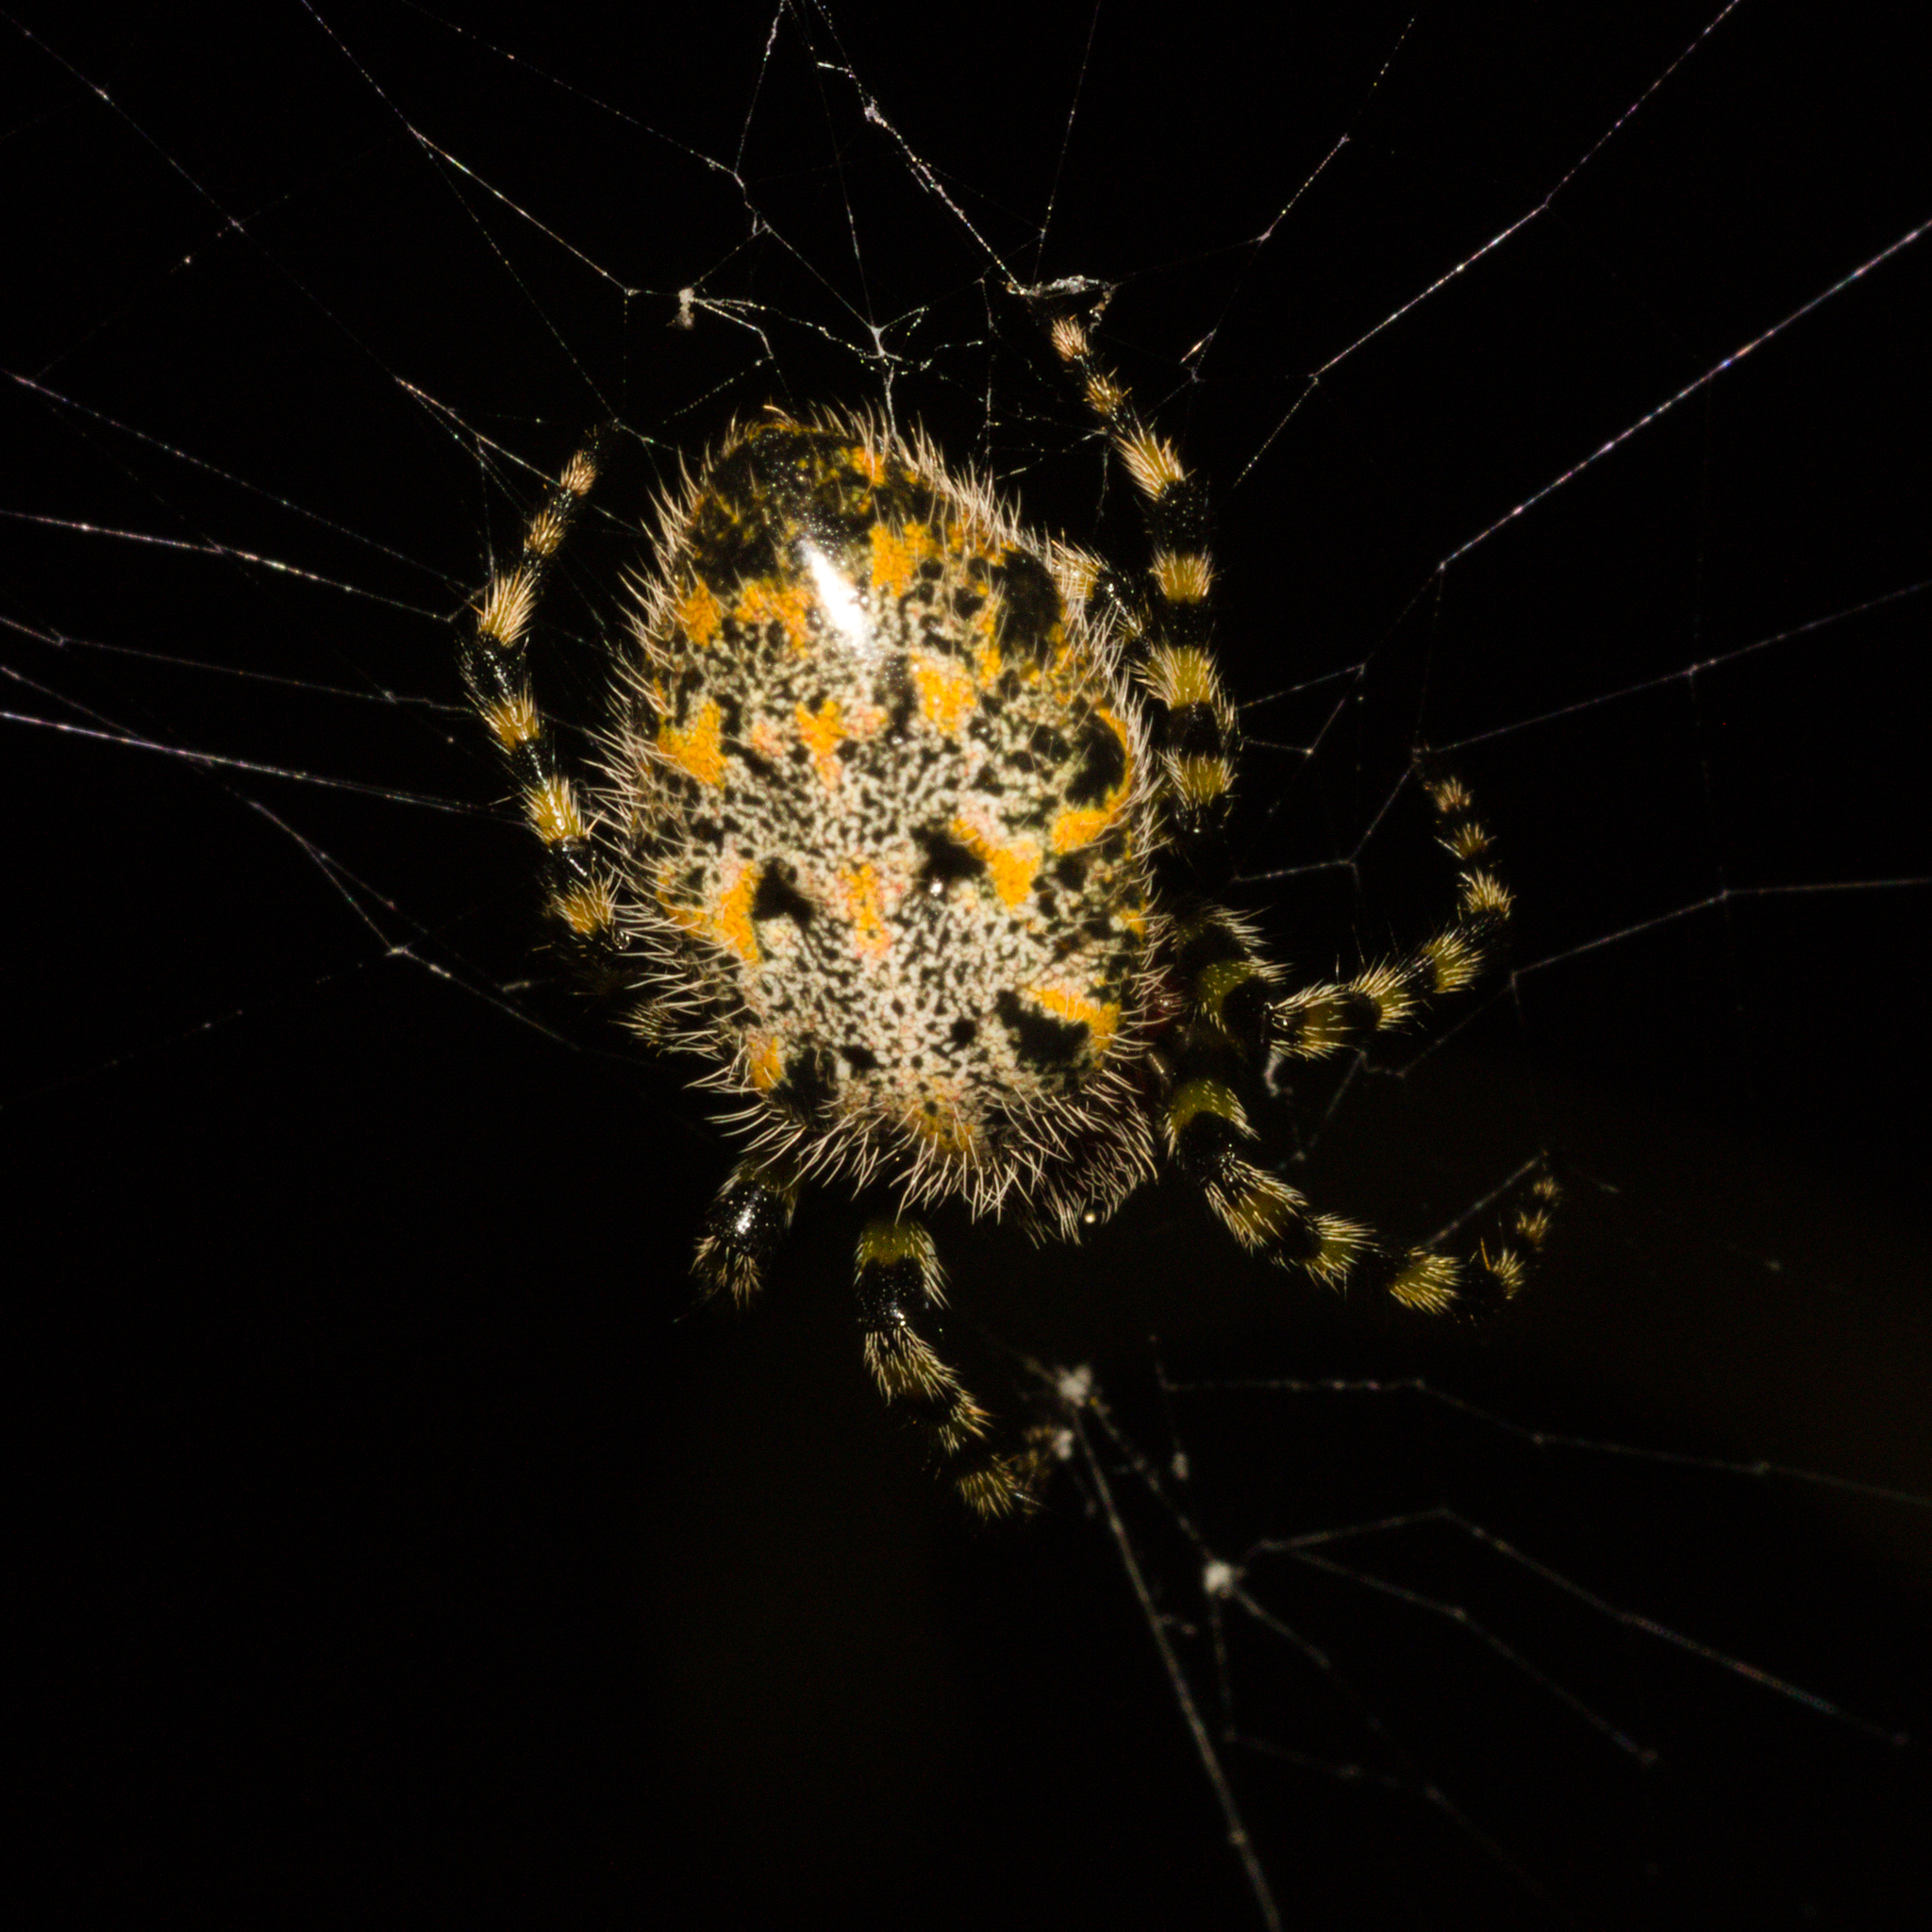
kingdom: Animalia
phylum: Arthropoda
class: Arachnida
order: Araneae
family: Araneidae
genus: Alpaida
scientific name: Alpaida alticeps
